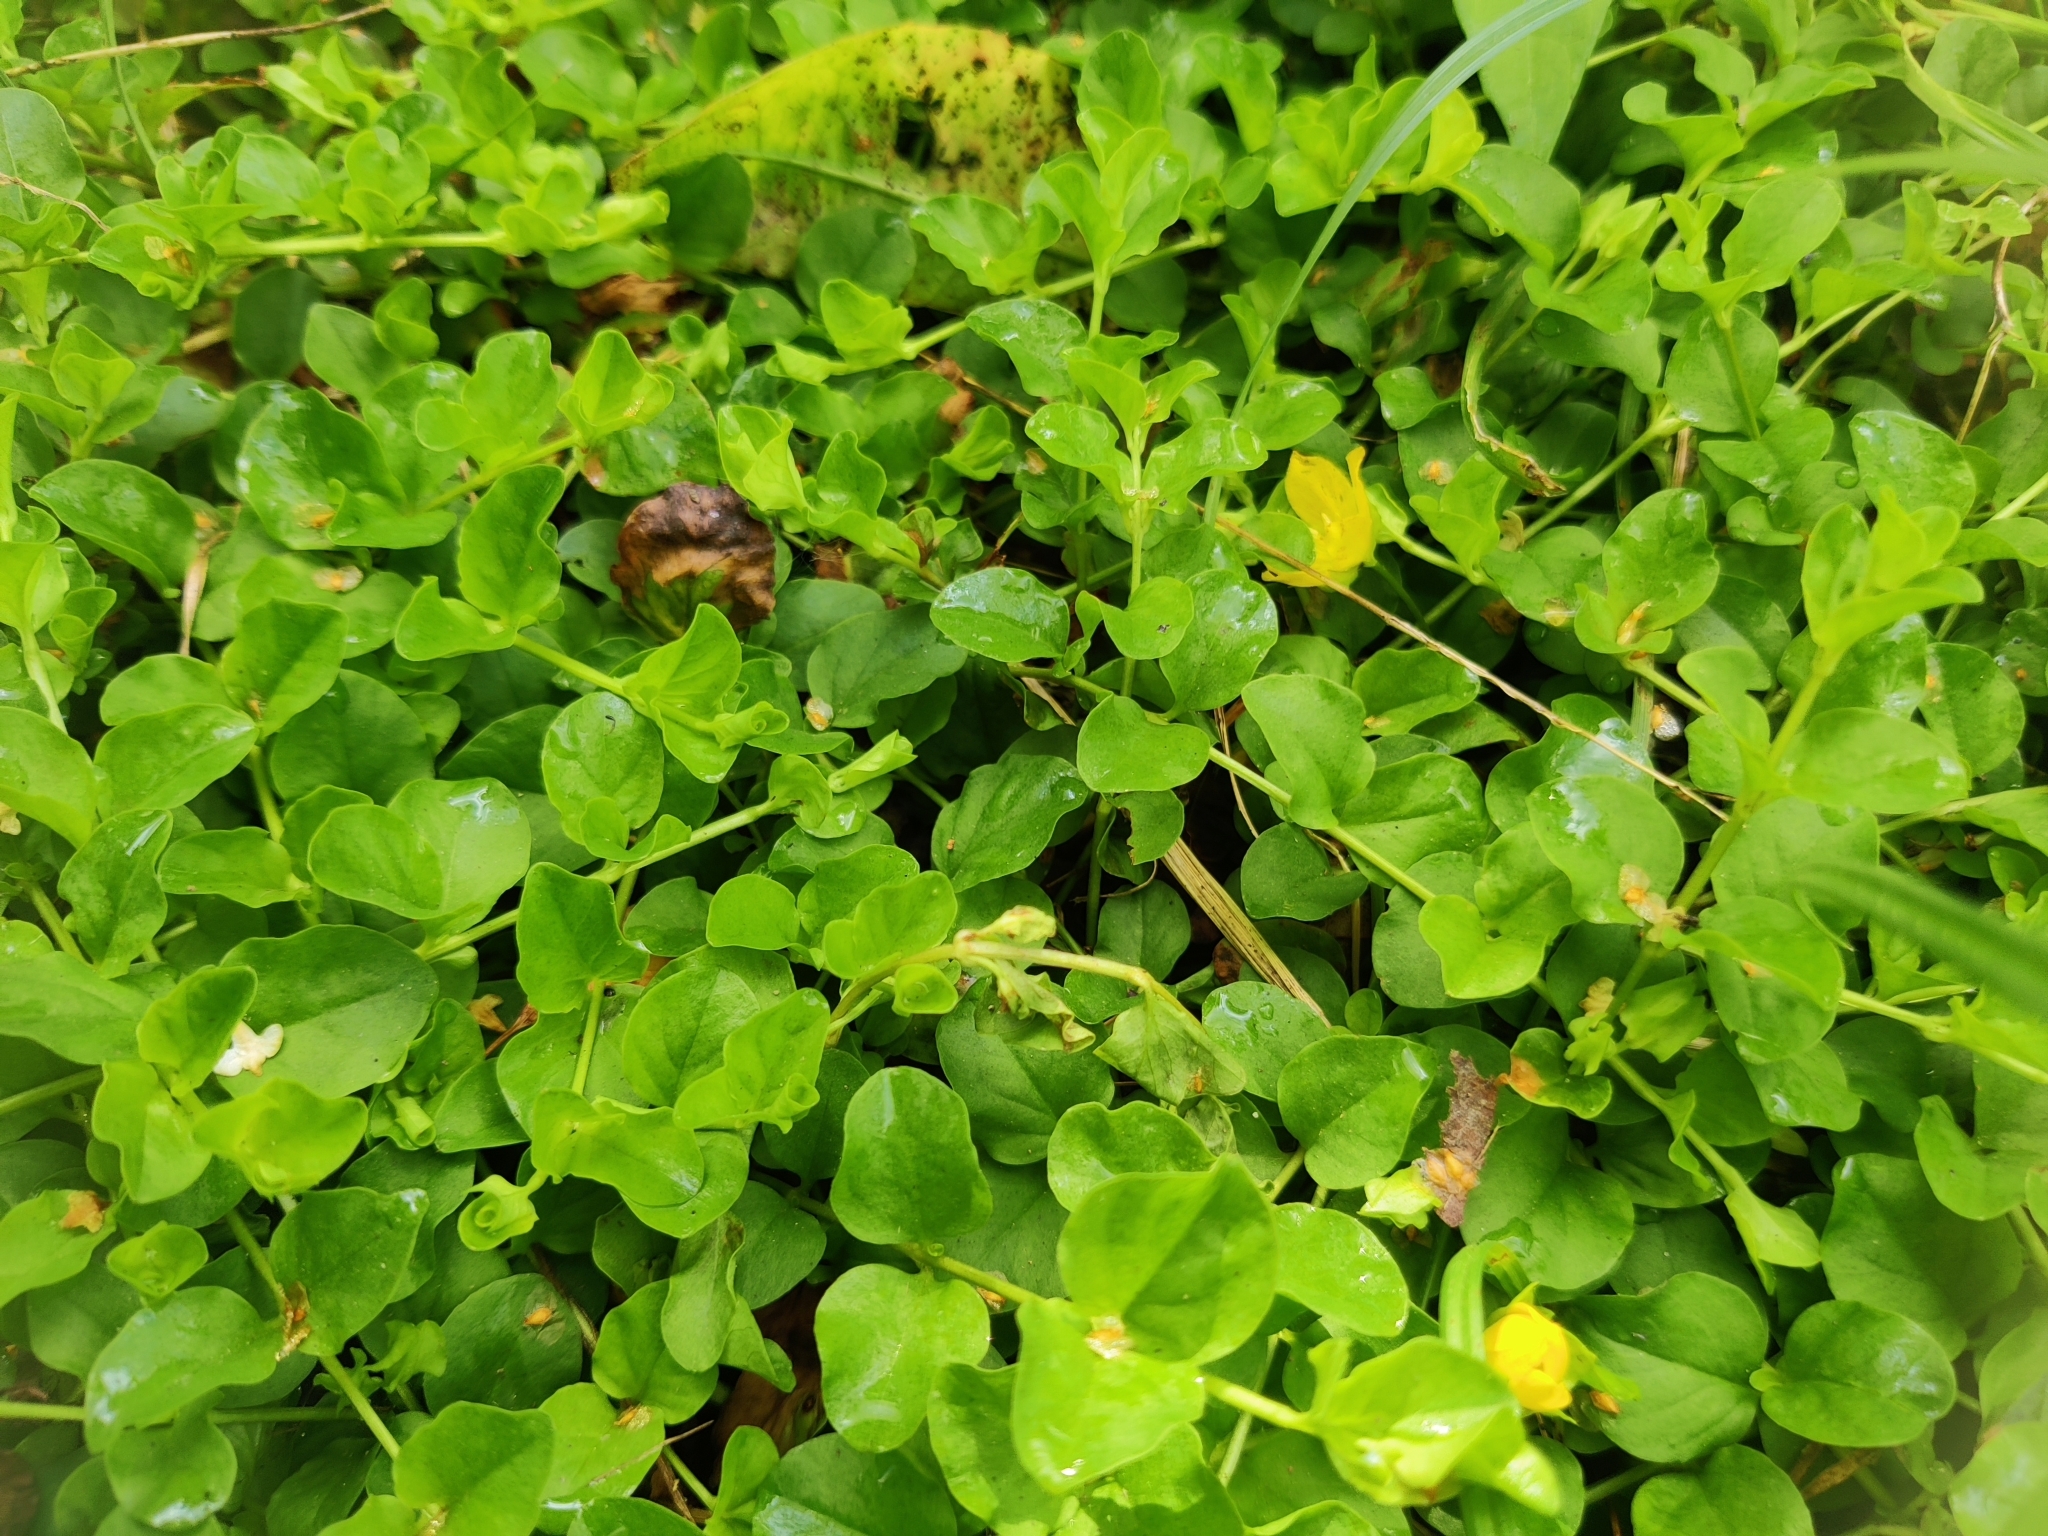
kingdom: Plantae
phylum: Tracheophyta
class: Magnoliopsida
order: Ericales
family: Primulaceae
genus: Lysimachia
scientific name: Lysimachia nummularia
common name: Moneywort
